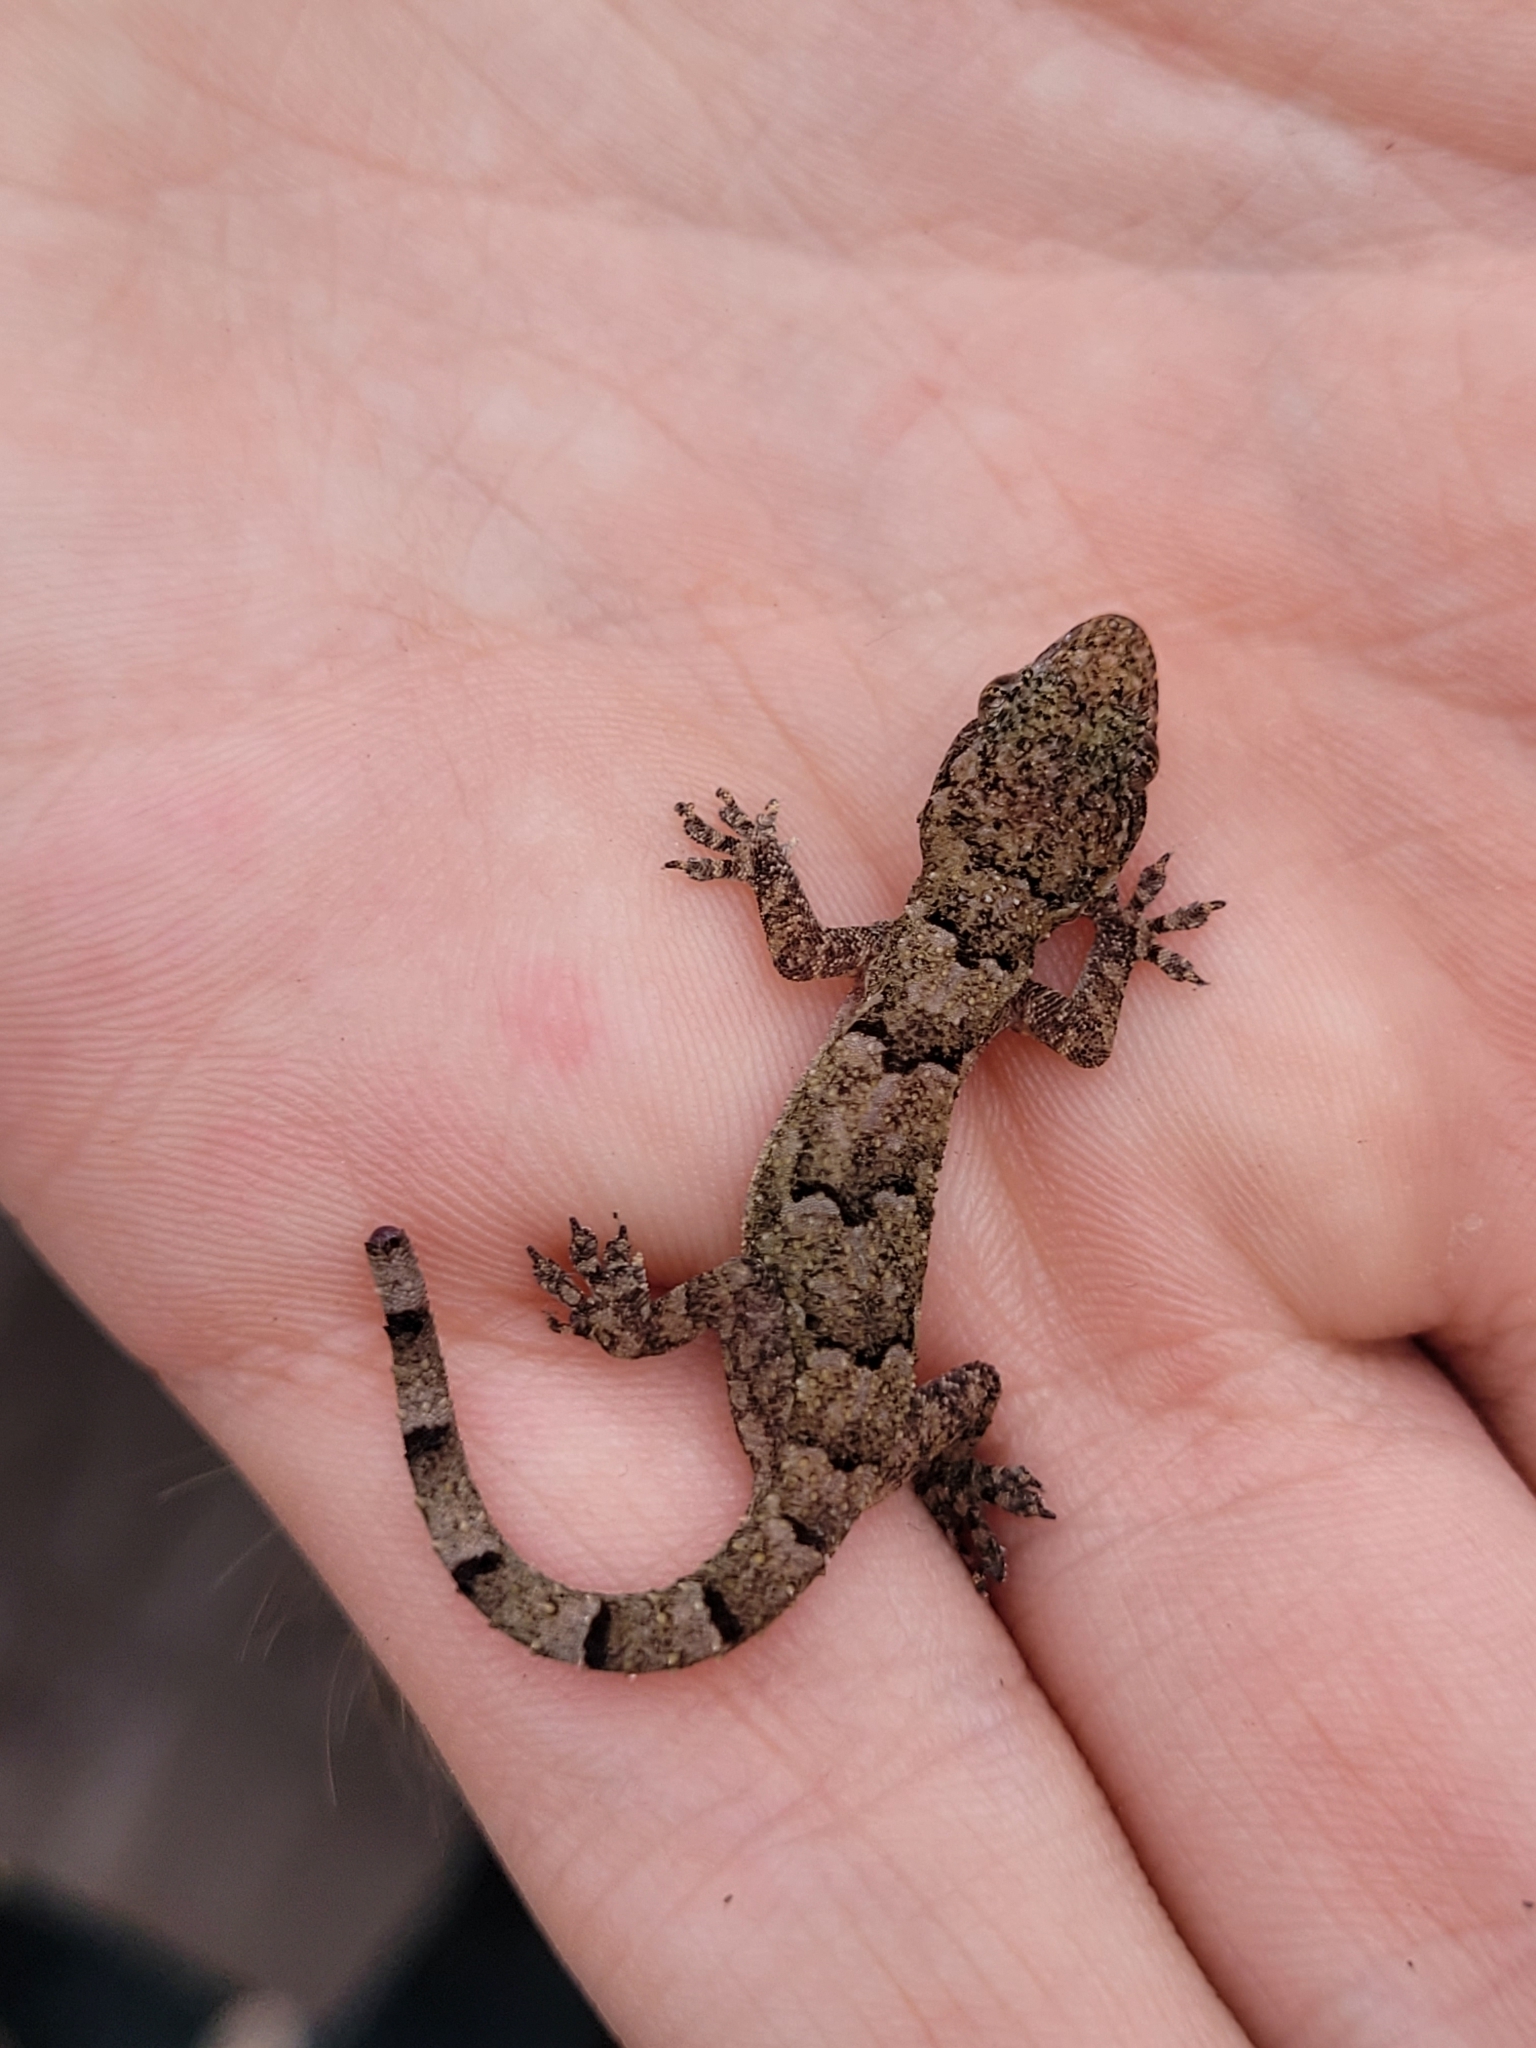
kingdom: Animalia
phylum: Chordata
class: Squamata
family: Gekkonidae
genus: Hemidactylus
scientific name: Hemidactylus mabouia
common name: House gecko
